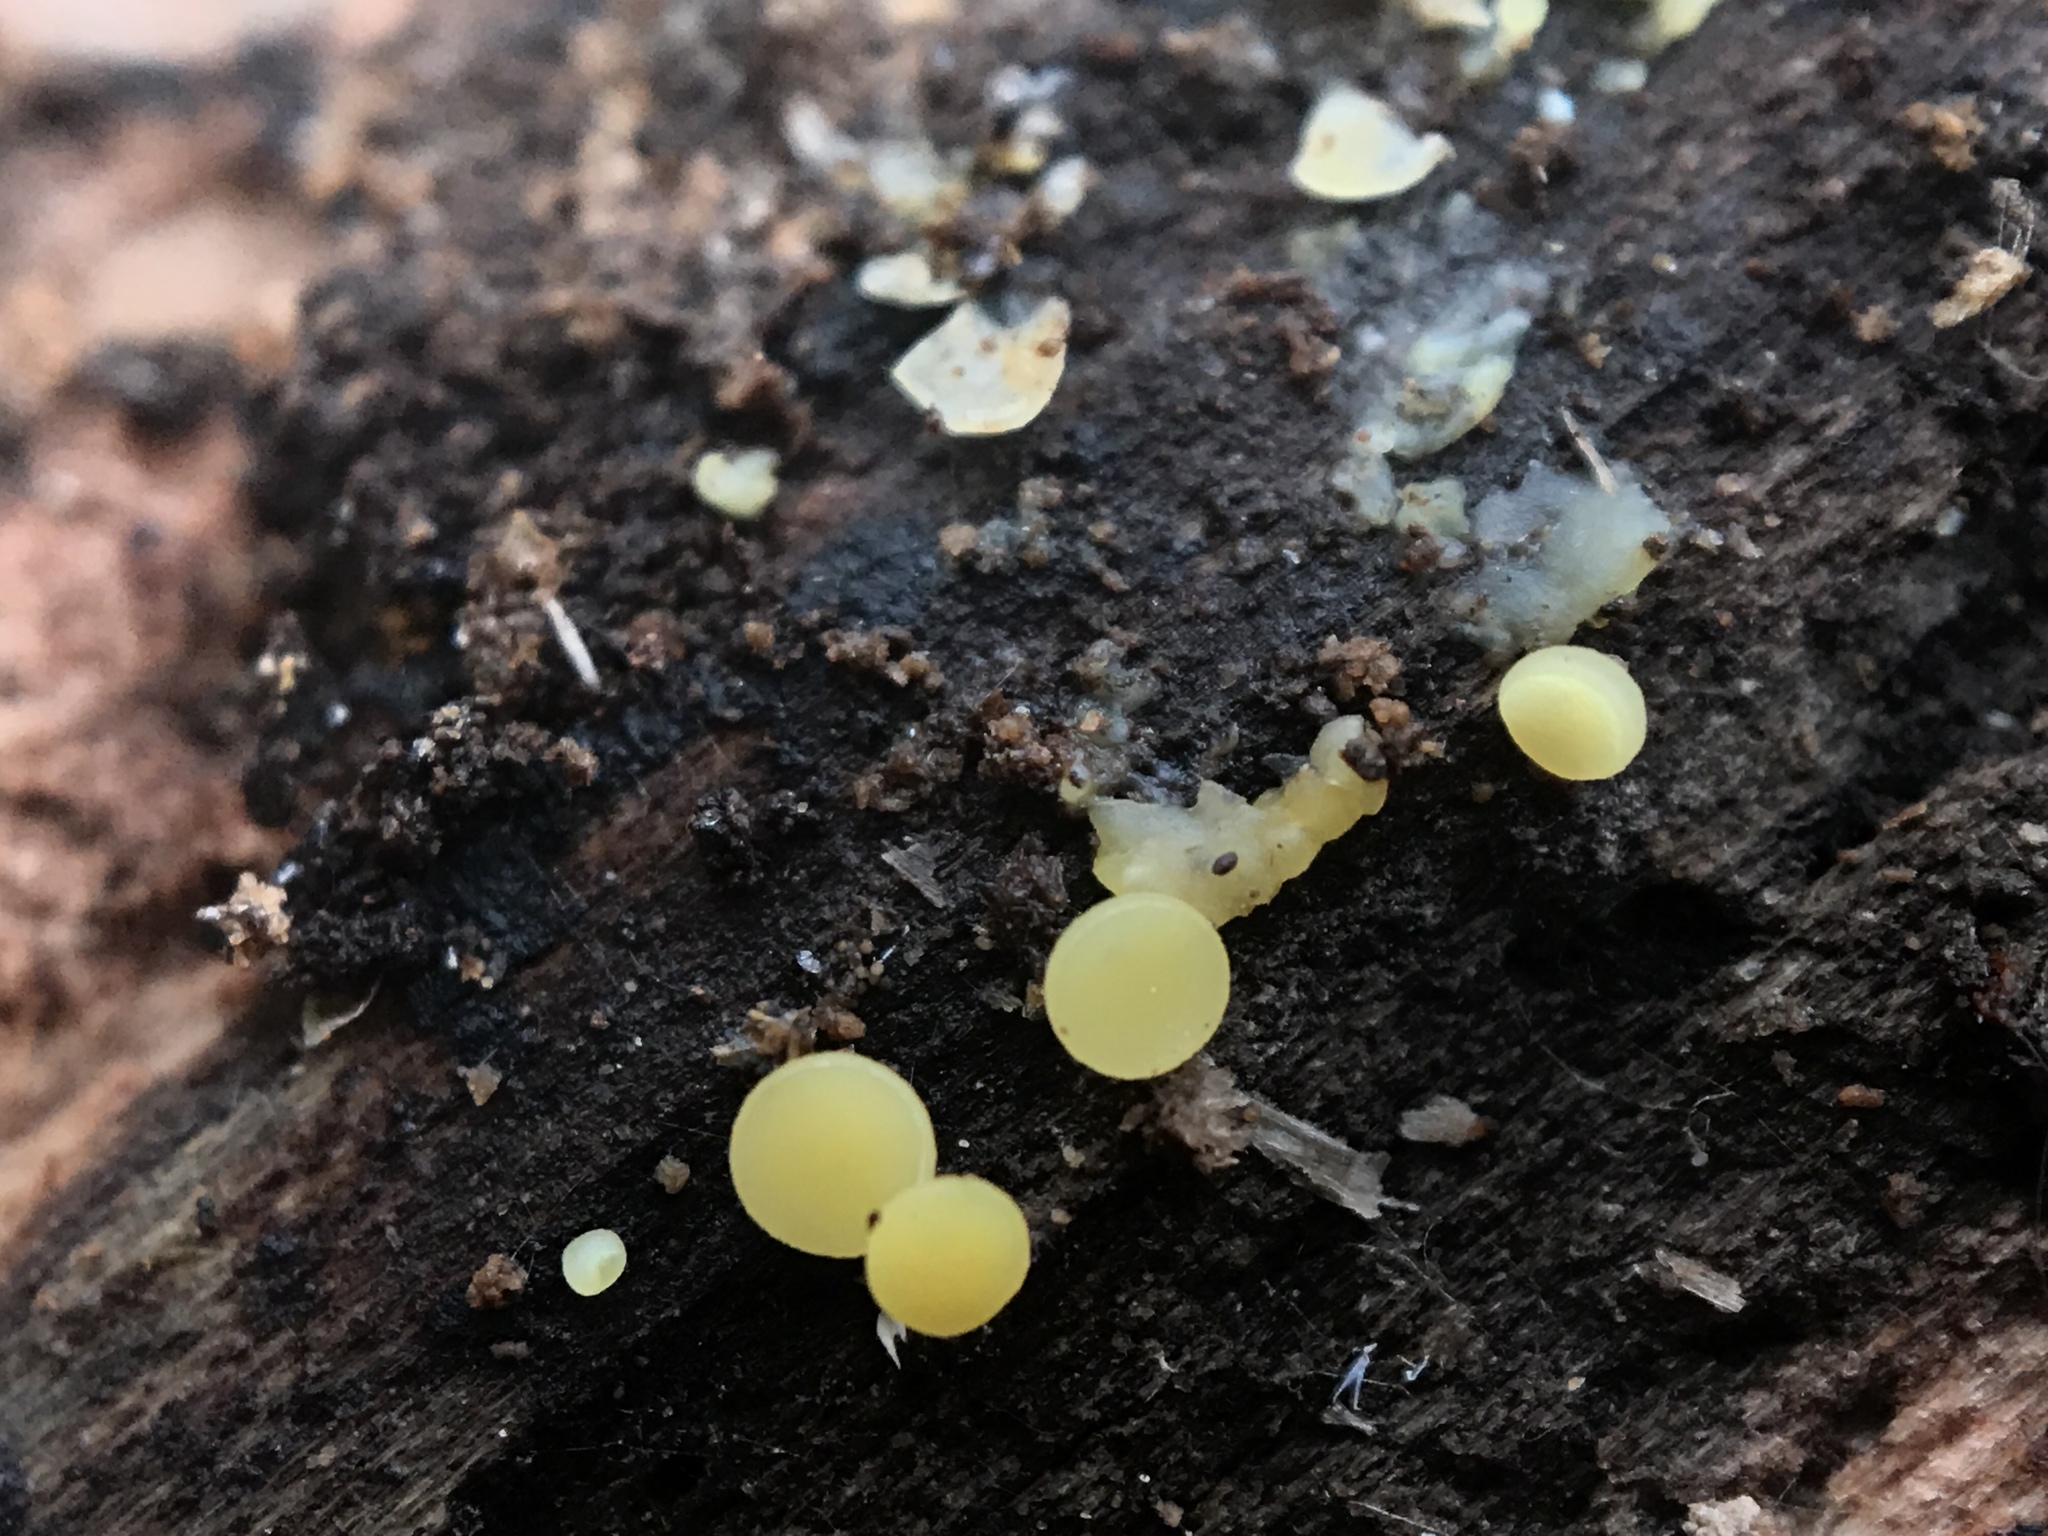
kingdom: Fungi
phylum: Ascomycota
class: Leotiomycetes
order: Helotiales
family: Pezizellaceae
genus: Calycina
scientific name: Calycina citrina
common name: Yellow fairy cups
